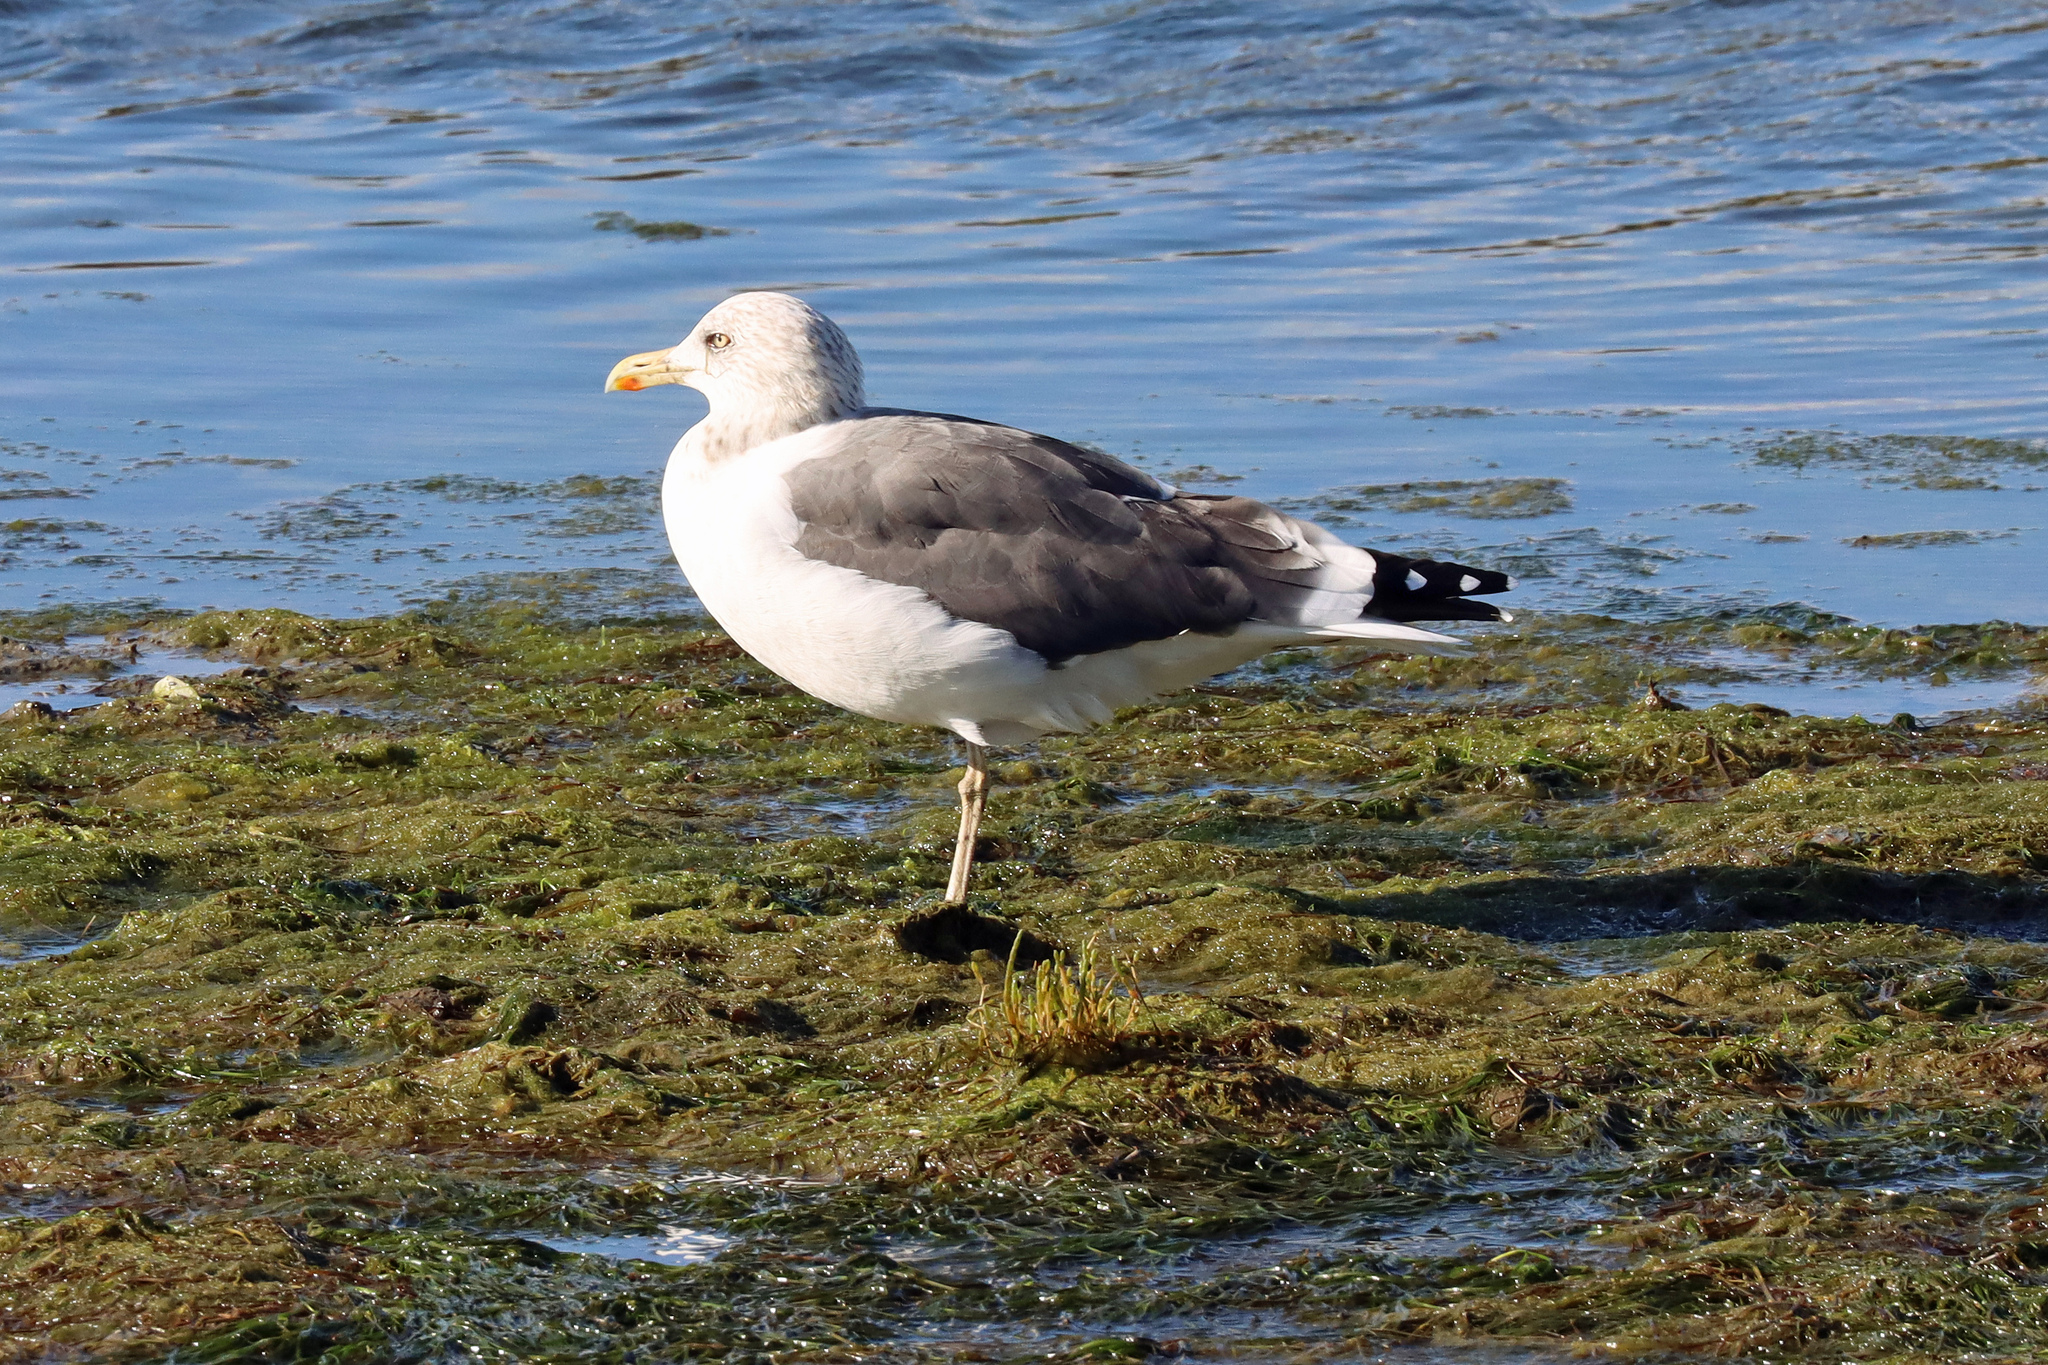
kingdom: Animalia
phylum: Chordata
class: Aves
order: Charadriiformes
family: Laridae
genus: Larus
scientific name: Larus fuscus
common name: Lesser black-backed gull
